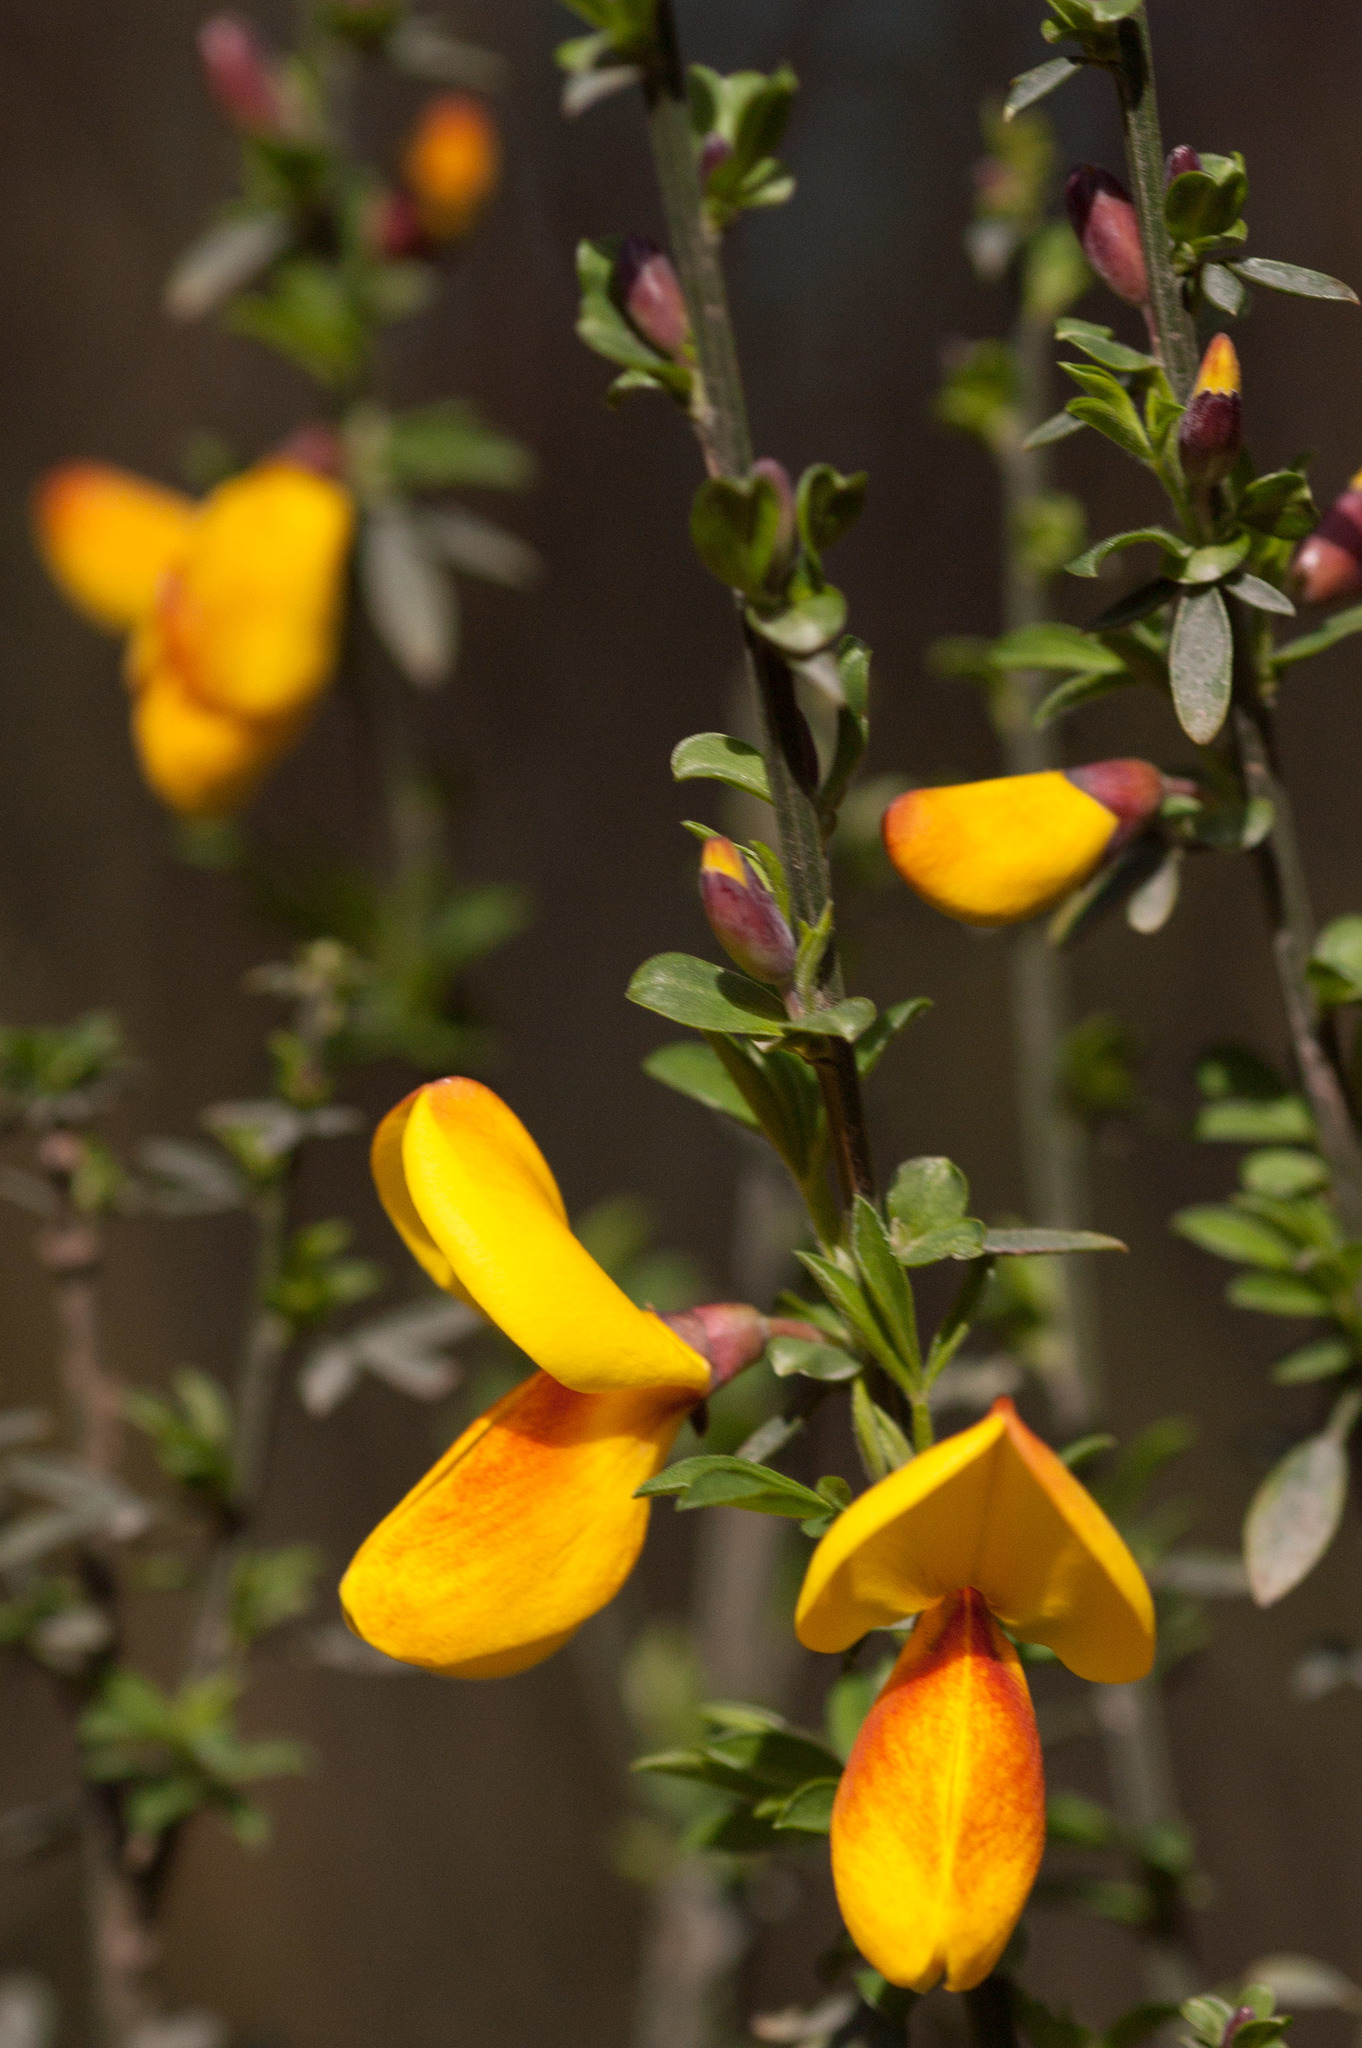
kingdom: Plantae
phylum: Tracheophyta
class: Magnoliopsida
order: Fabales
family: Fabaceae
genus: Cytisus
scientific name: Cytisus scoparius
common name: Scotch broom
